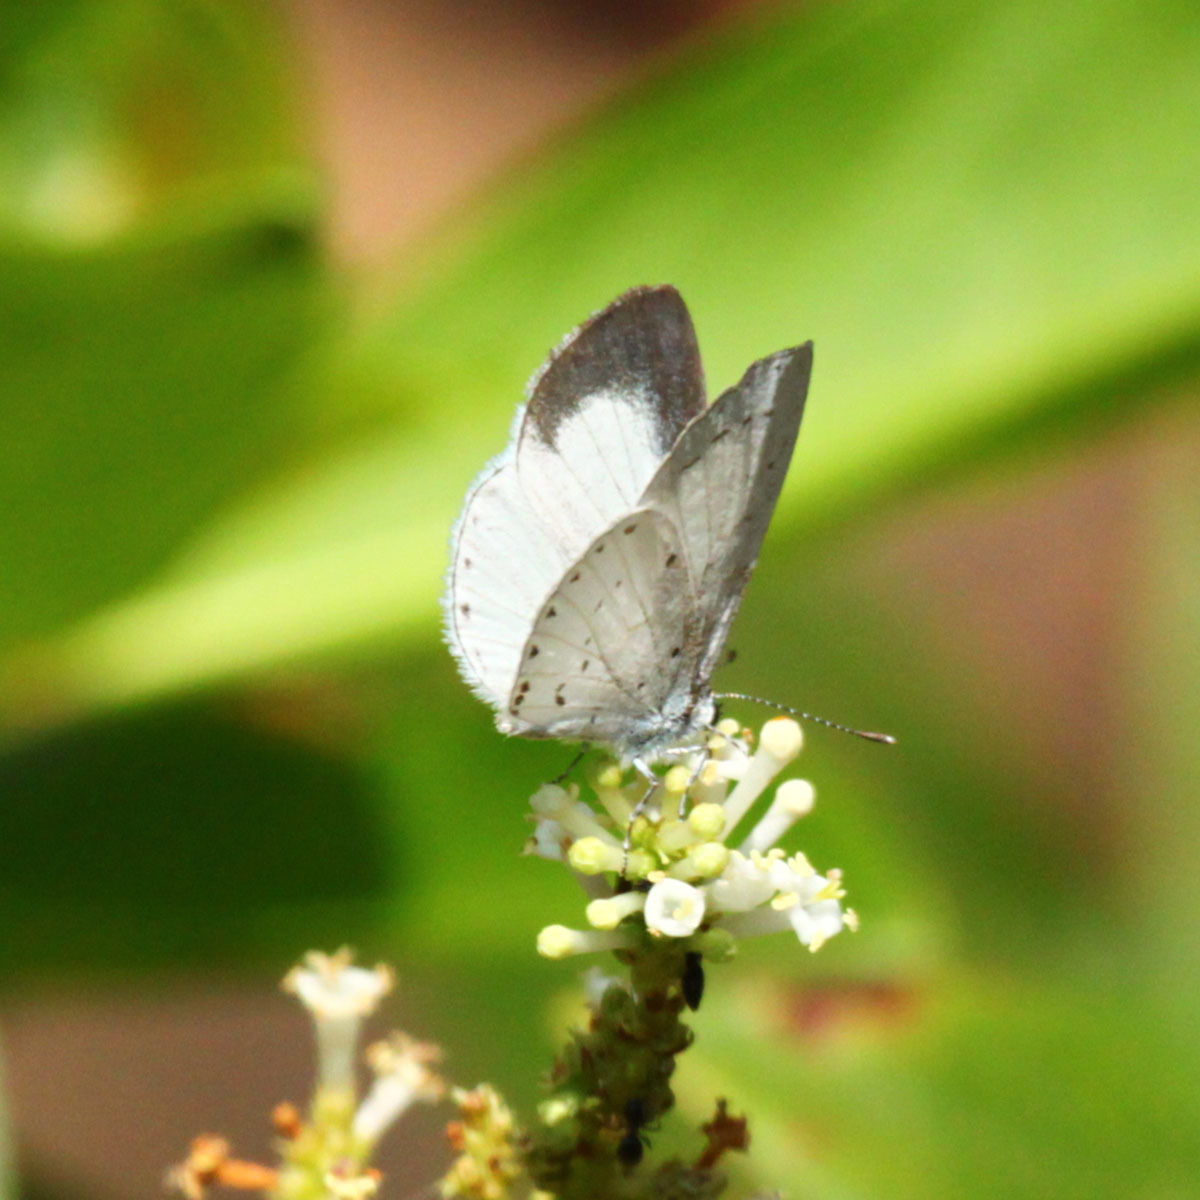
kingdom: Animalia
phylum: Arthropoda
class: Insecta
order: Lepidoptera
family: Lycaenidae
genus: Udara
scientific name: Udara akasa
